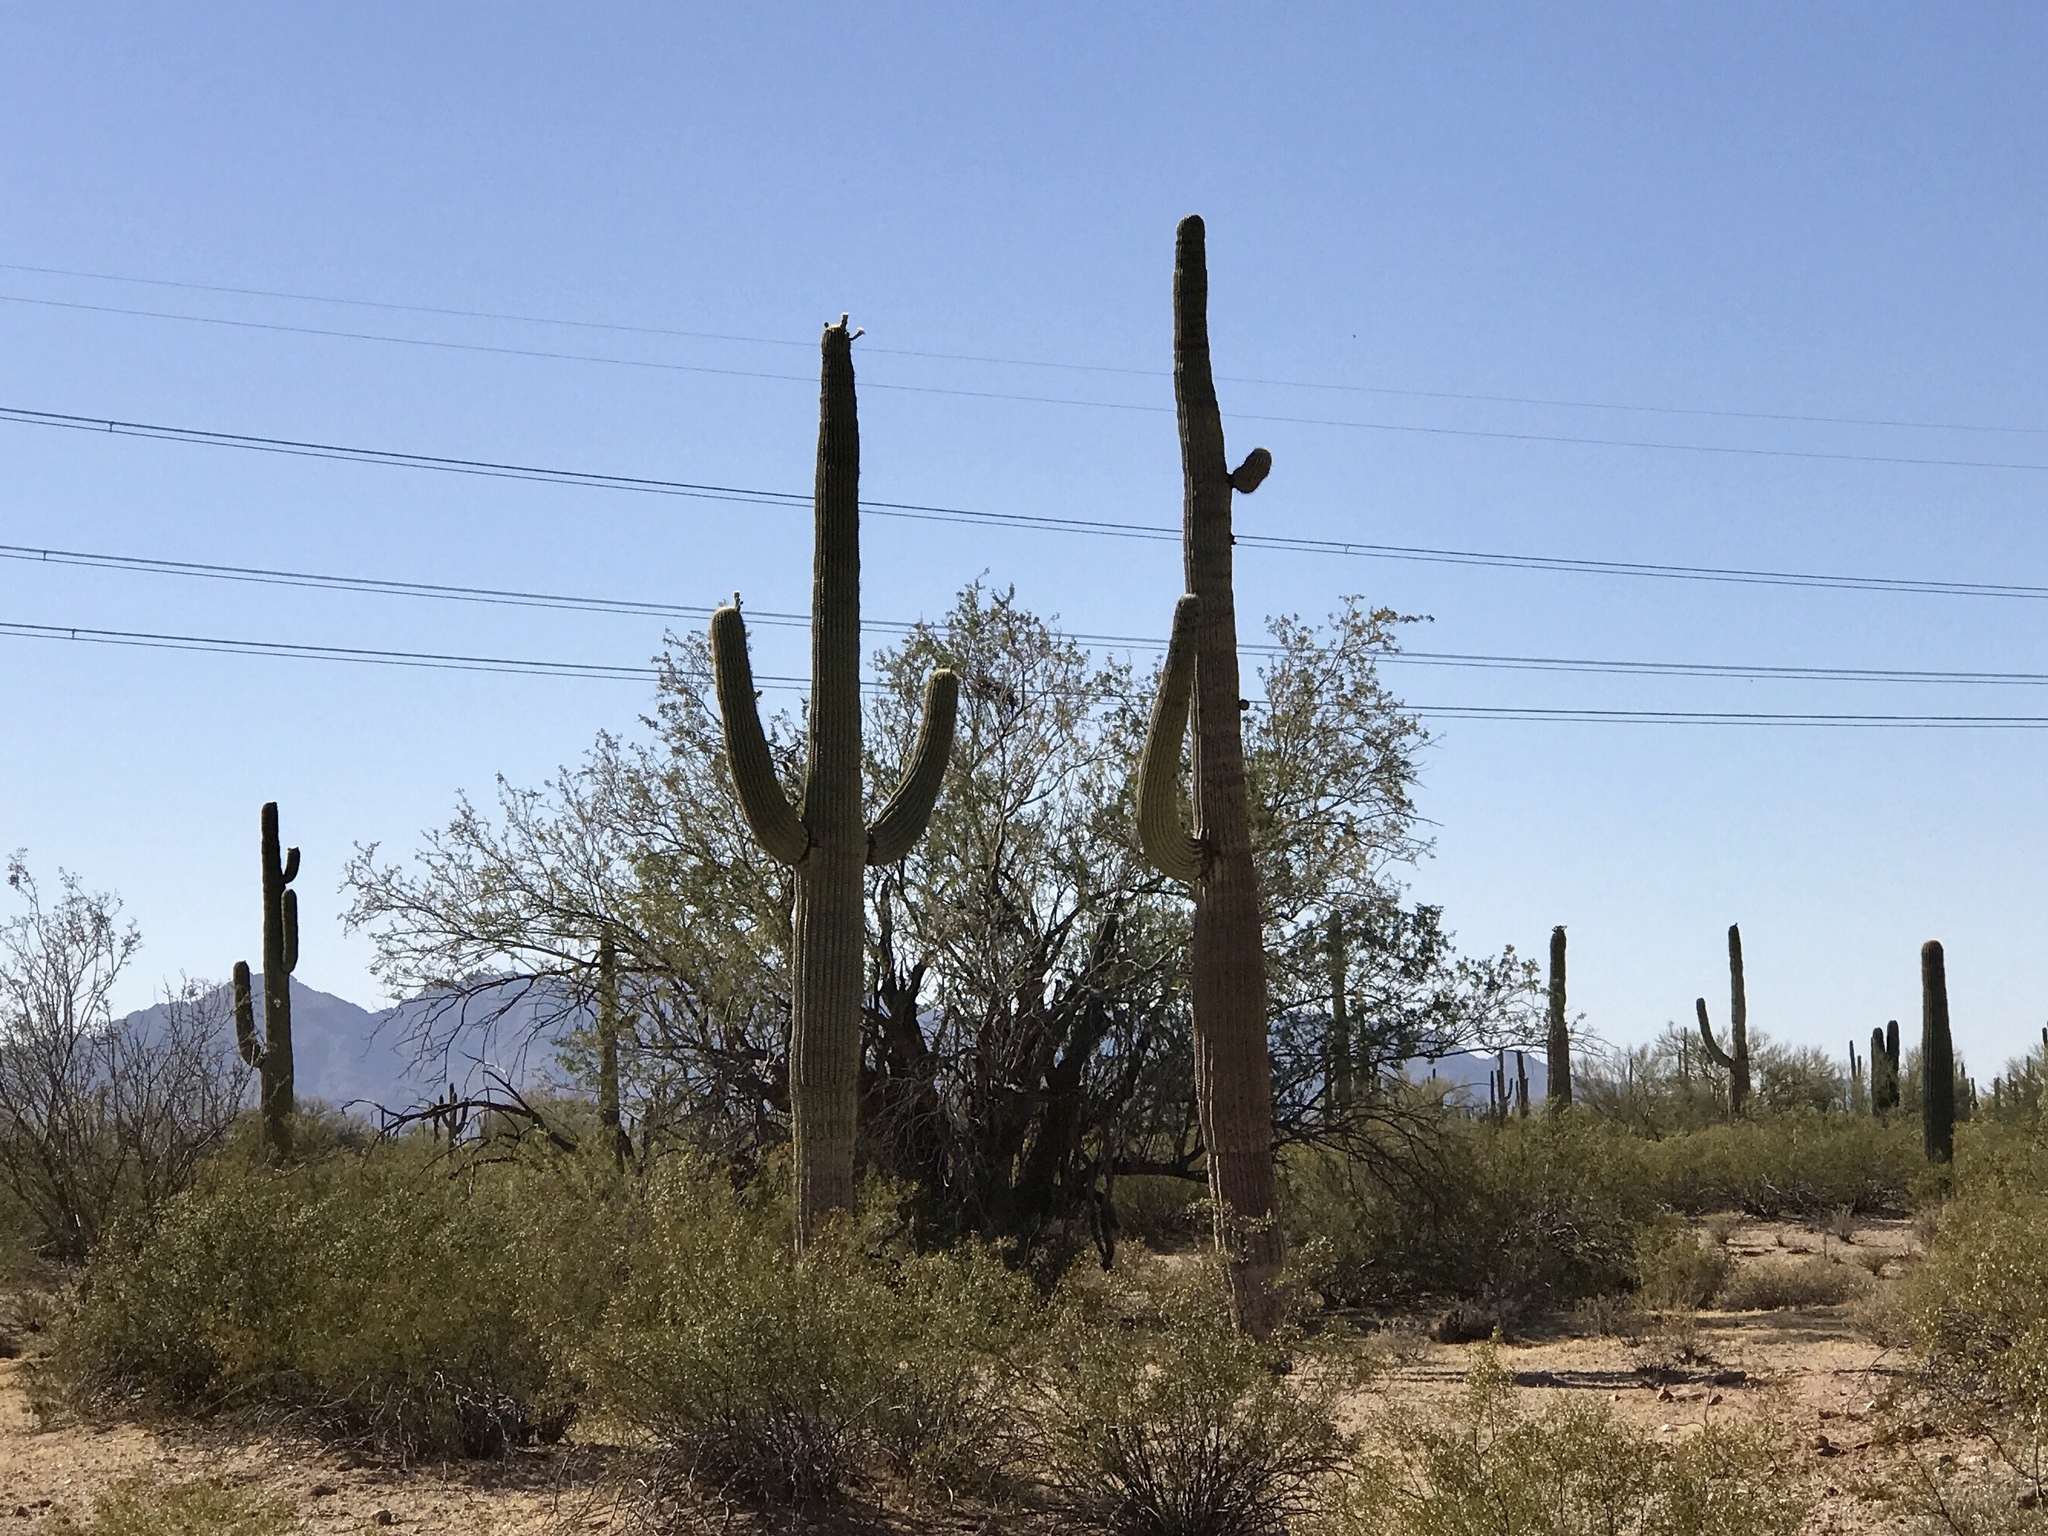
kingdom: Plantae
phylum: Tracheophyta
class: Magnoliopsida
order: Caryophyllales
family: Cactaceae
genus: Carnegiea
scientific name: Carnegiea gigantea
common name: Saguaro
